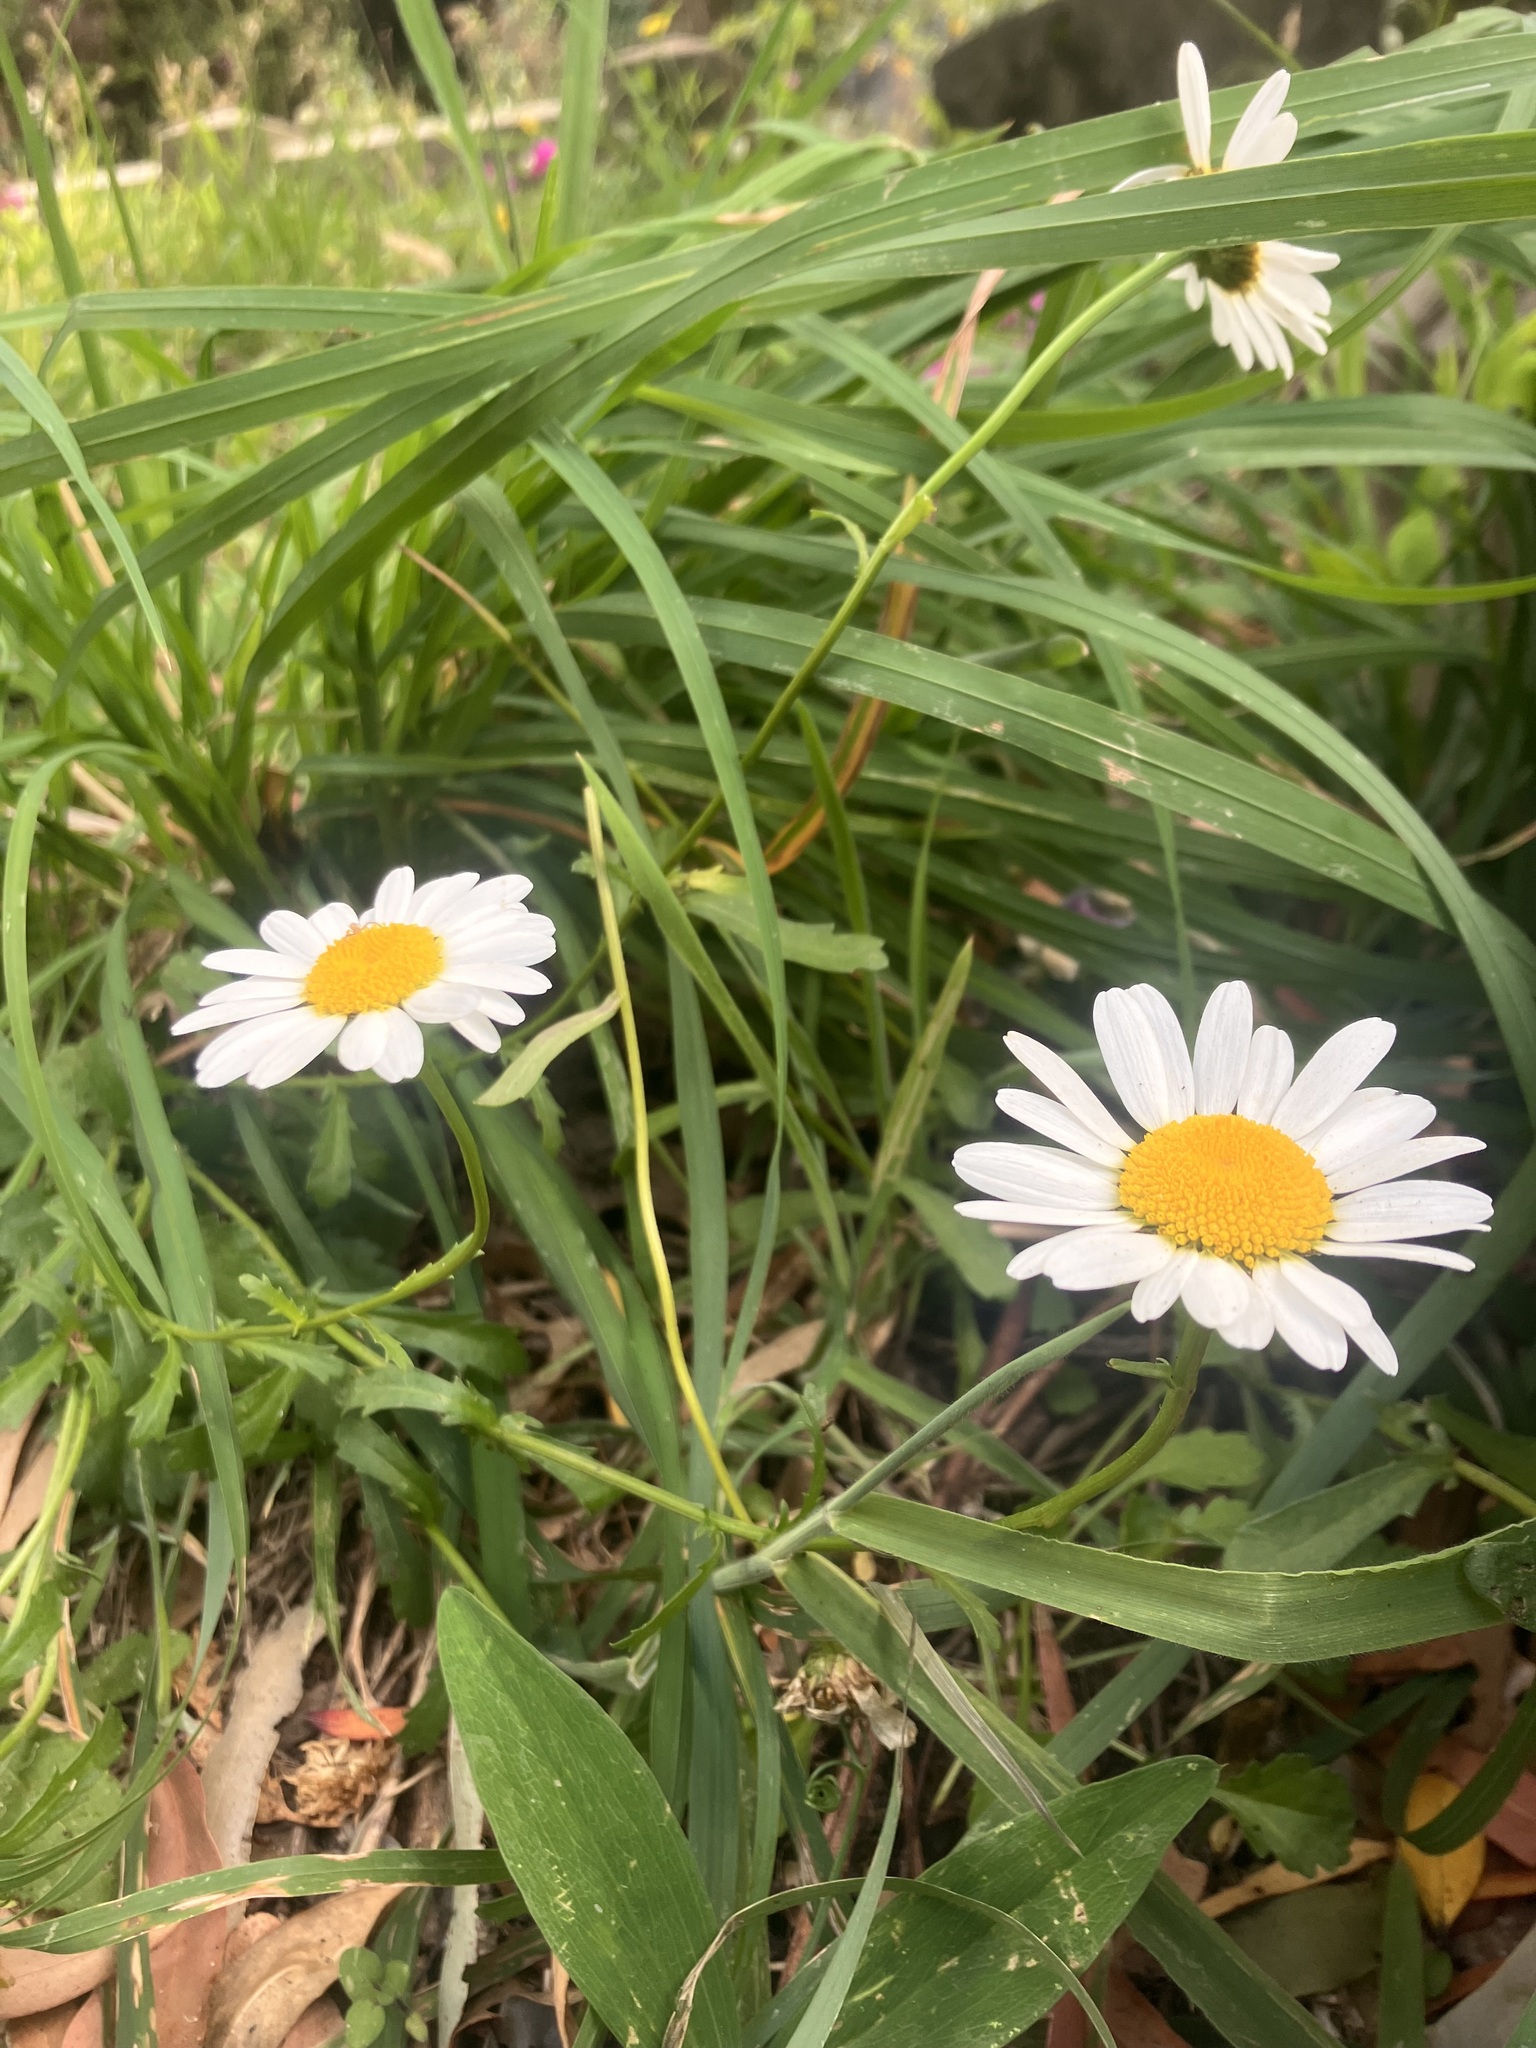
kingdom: Plantae
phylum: Tracheophyta
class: Magnoliopsida
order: Asterales
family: Asteraceae
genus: Leucanthemum
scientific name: Leucanthemum vulgare
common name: Oxeye daisy
